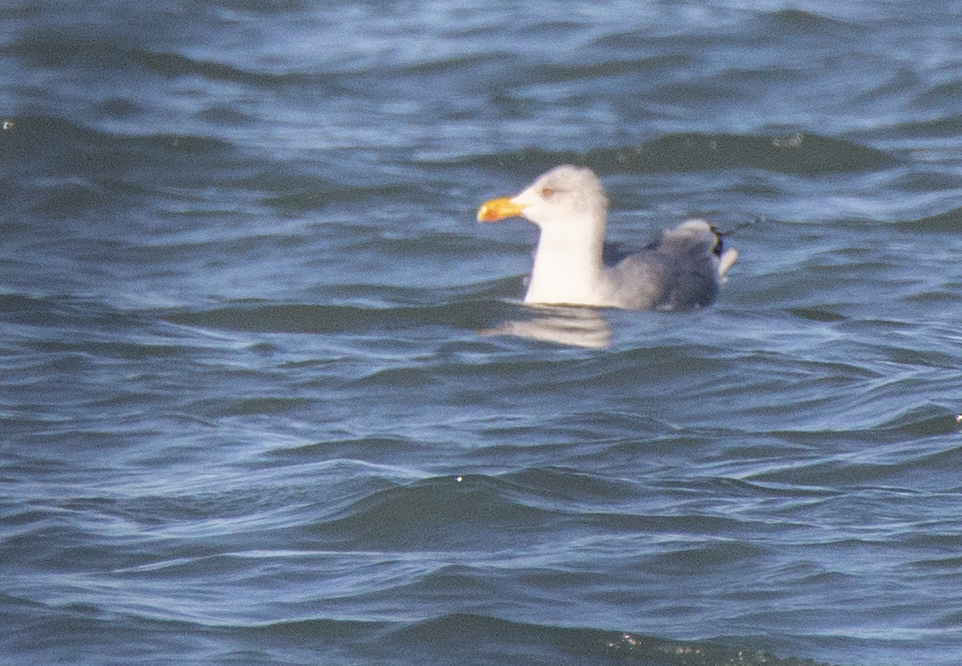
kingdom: Animalia
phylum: Chordata
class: Aves
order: Charadriiformes
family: Laridae
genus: Larus
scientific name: Larus michahellis
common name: Yellow-legged gull
